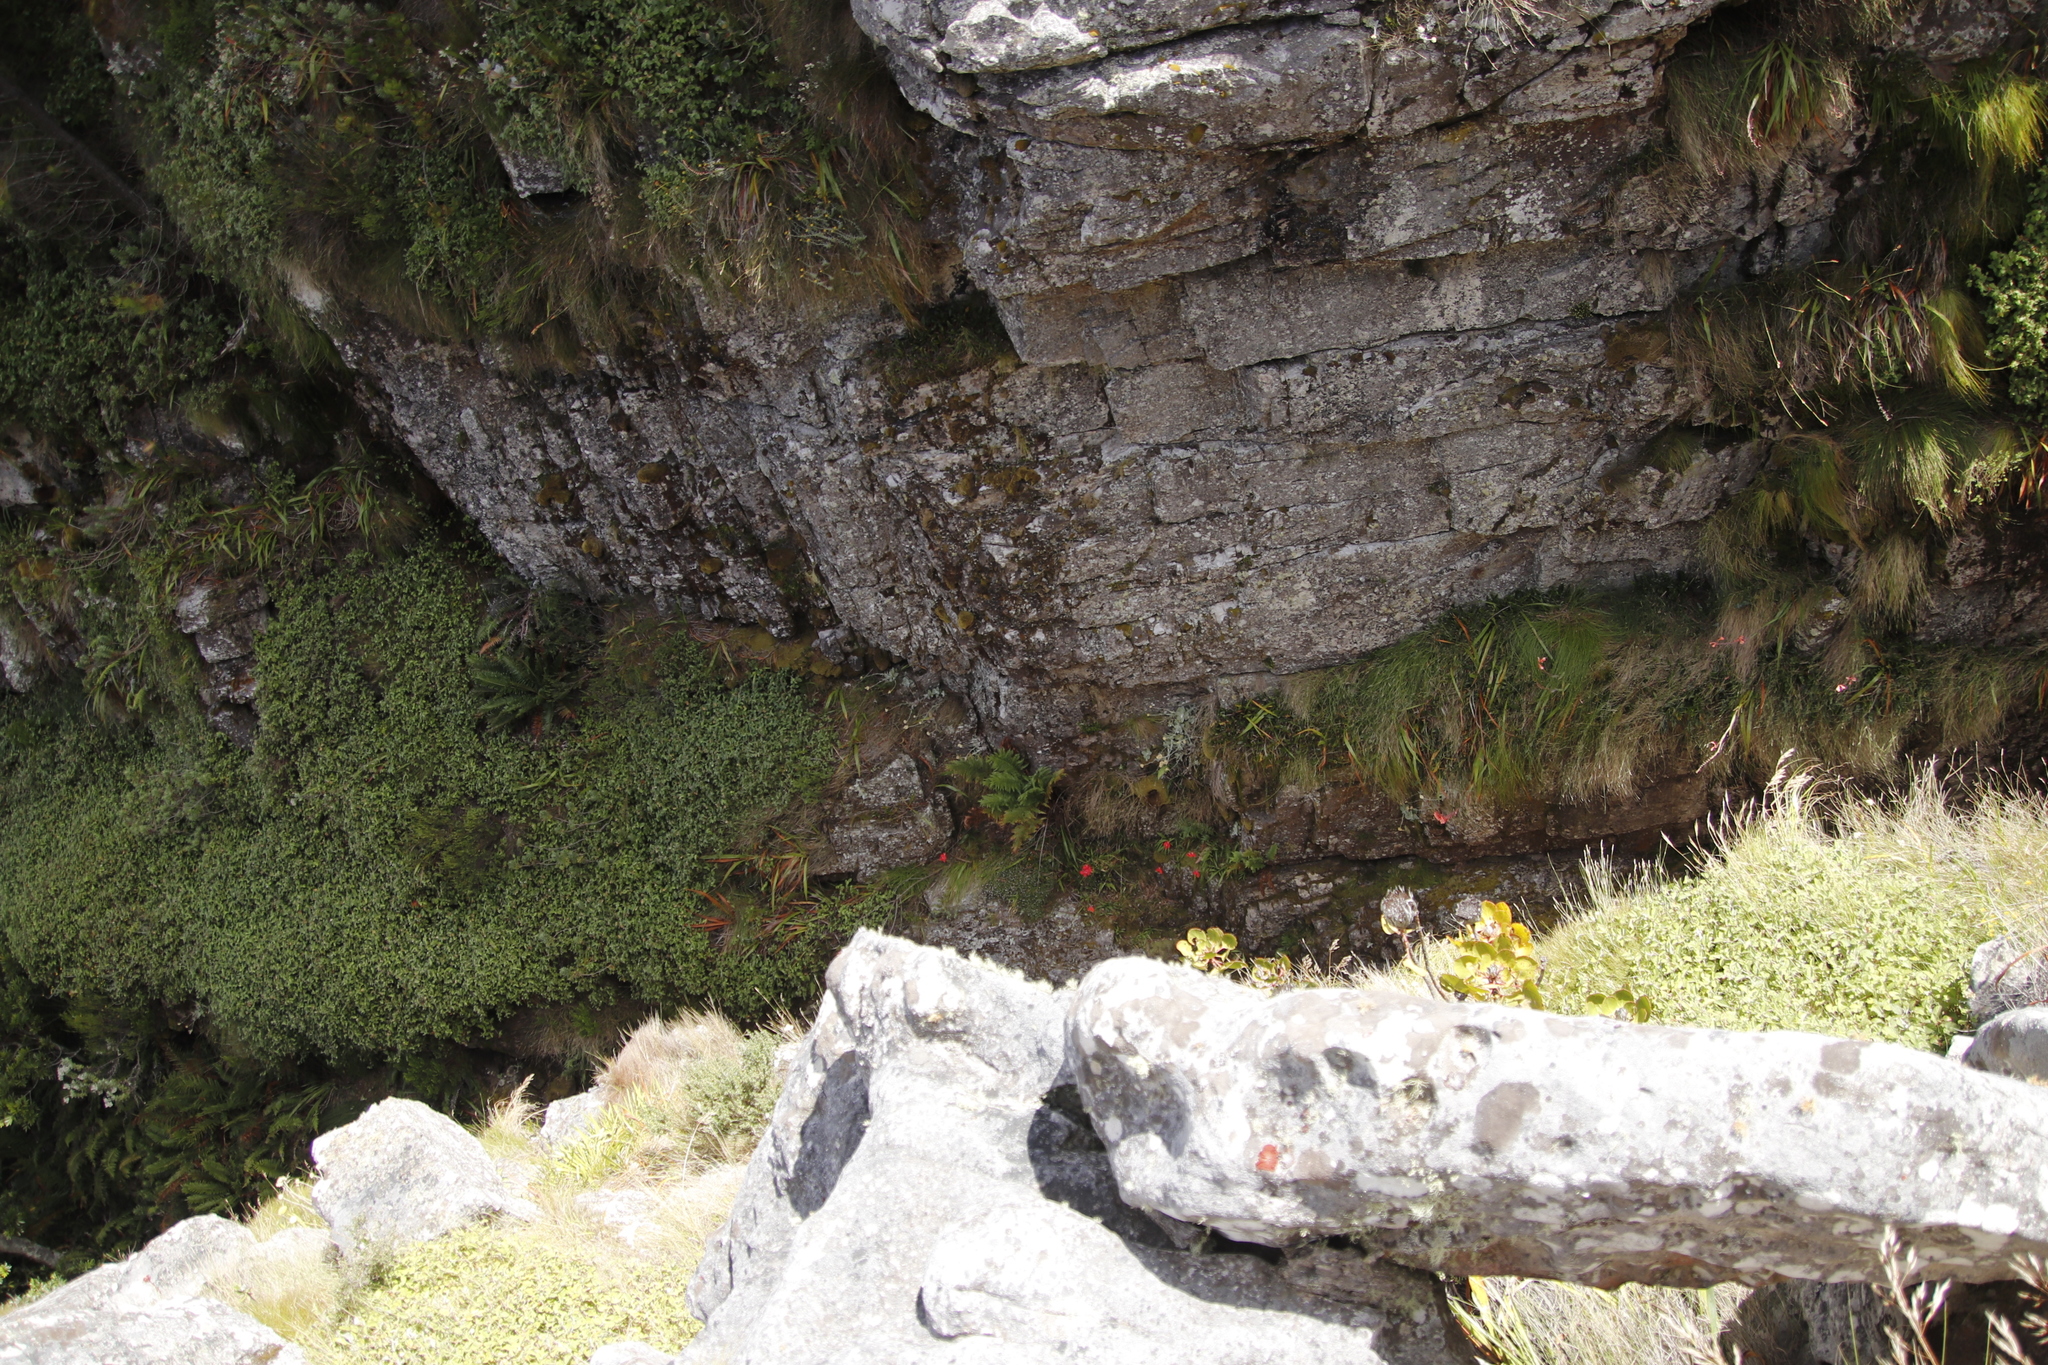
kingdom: Plantae
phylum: Tracheophyta
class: Liliopsida
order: Asparagales
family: Orchidaceae
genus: Disa
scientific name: Disa uniflora
